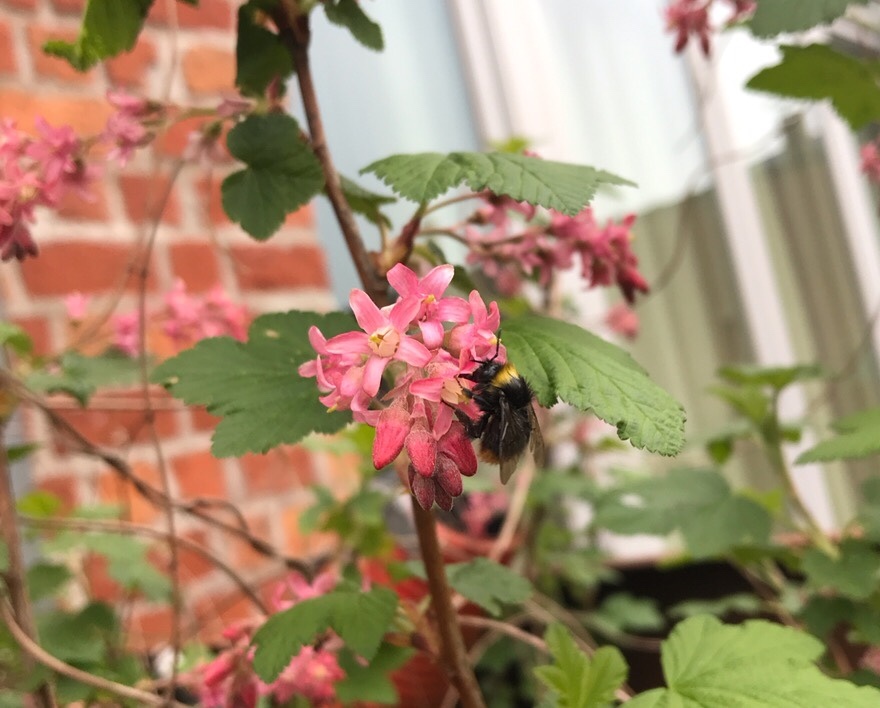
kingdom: Animalia
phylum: Arthropoda
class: Insecta
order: Hymenoptera
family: Apidae
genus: Bombus
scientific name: Bombus pratorum
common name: Early humble-bee
